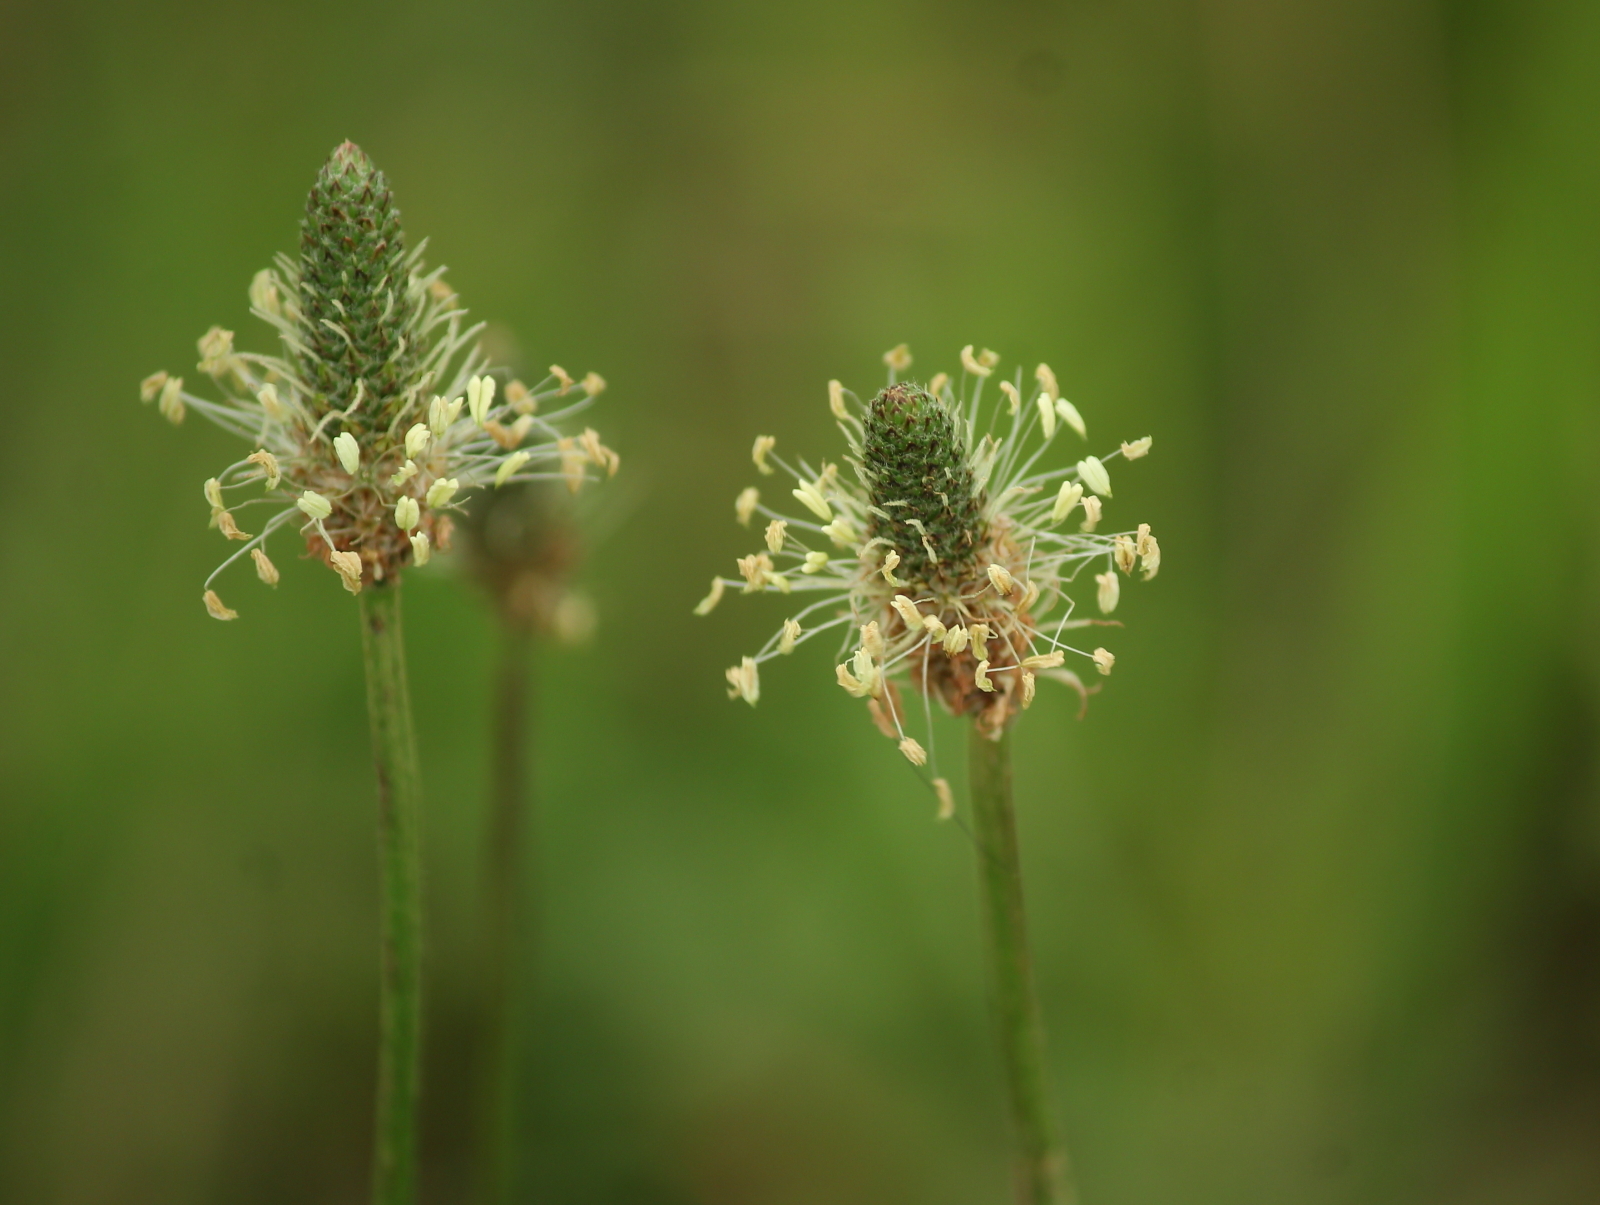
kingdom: Plantae
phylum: Tracheophyta
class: Magnoliopsida
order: Lamiales
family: Plantaginaceae
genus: Plantago
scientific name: Plantago lanceolata
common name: Ribwort plantain
